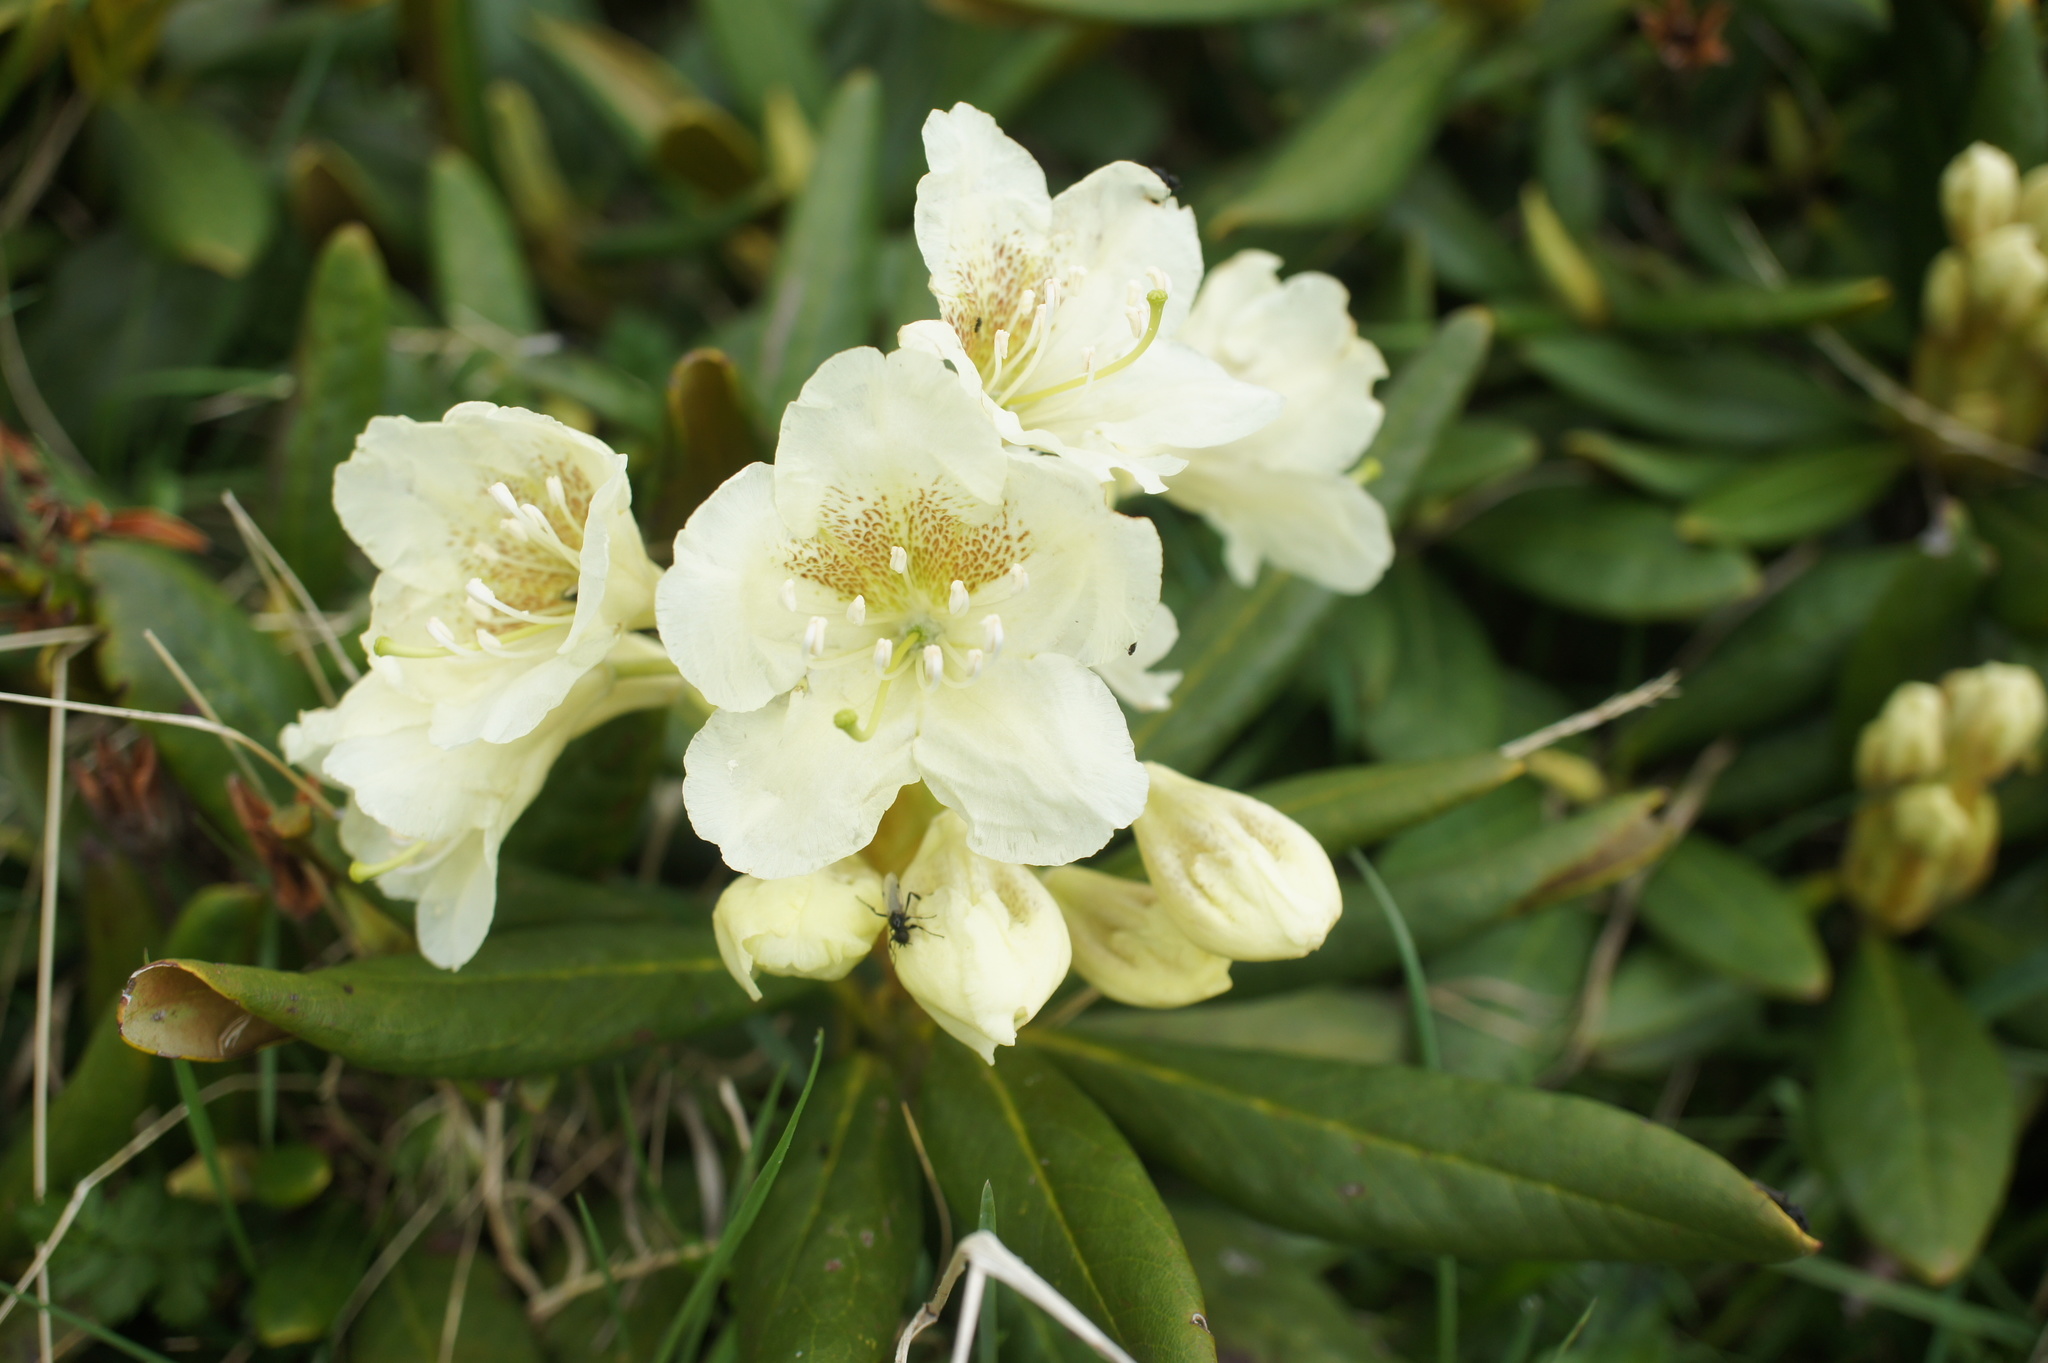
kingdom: Plantae
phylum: Tracheophyta
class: Magnoliopsida
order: Ericales
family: Ericaceae
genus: Rhododendron
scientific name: Rhododendron caucasicum
